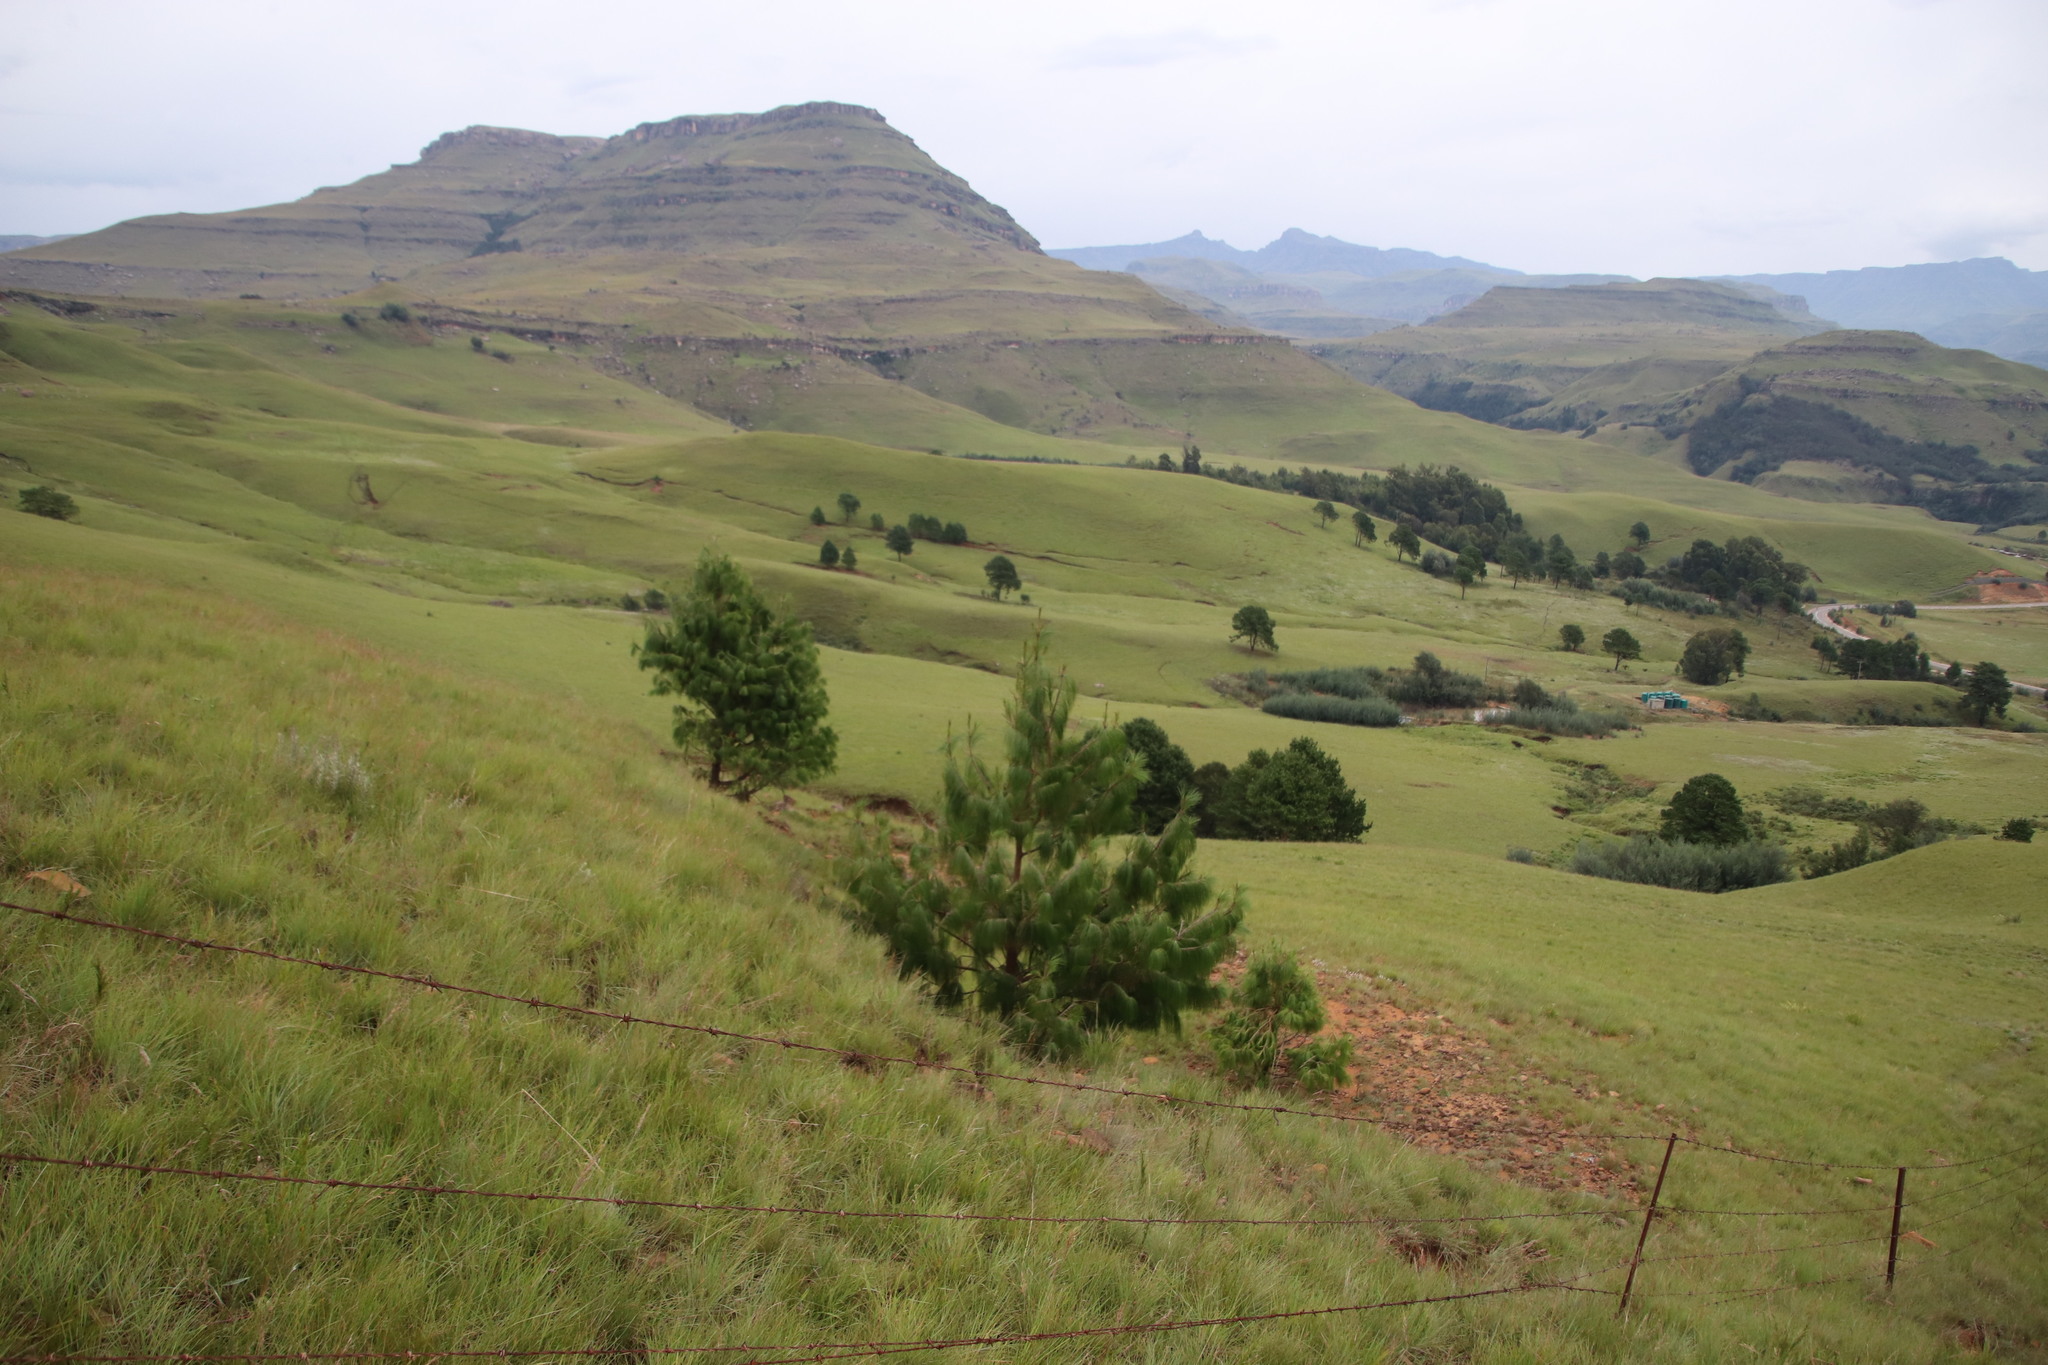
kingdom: Plantae
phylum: Tracheophyta
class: Pinopsida
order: Pinales
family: Pinaceae
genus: Pinus
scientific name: Pinus patula
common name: Mexican weeping pine
